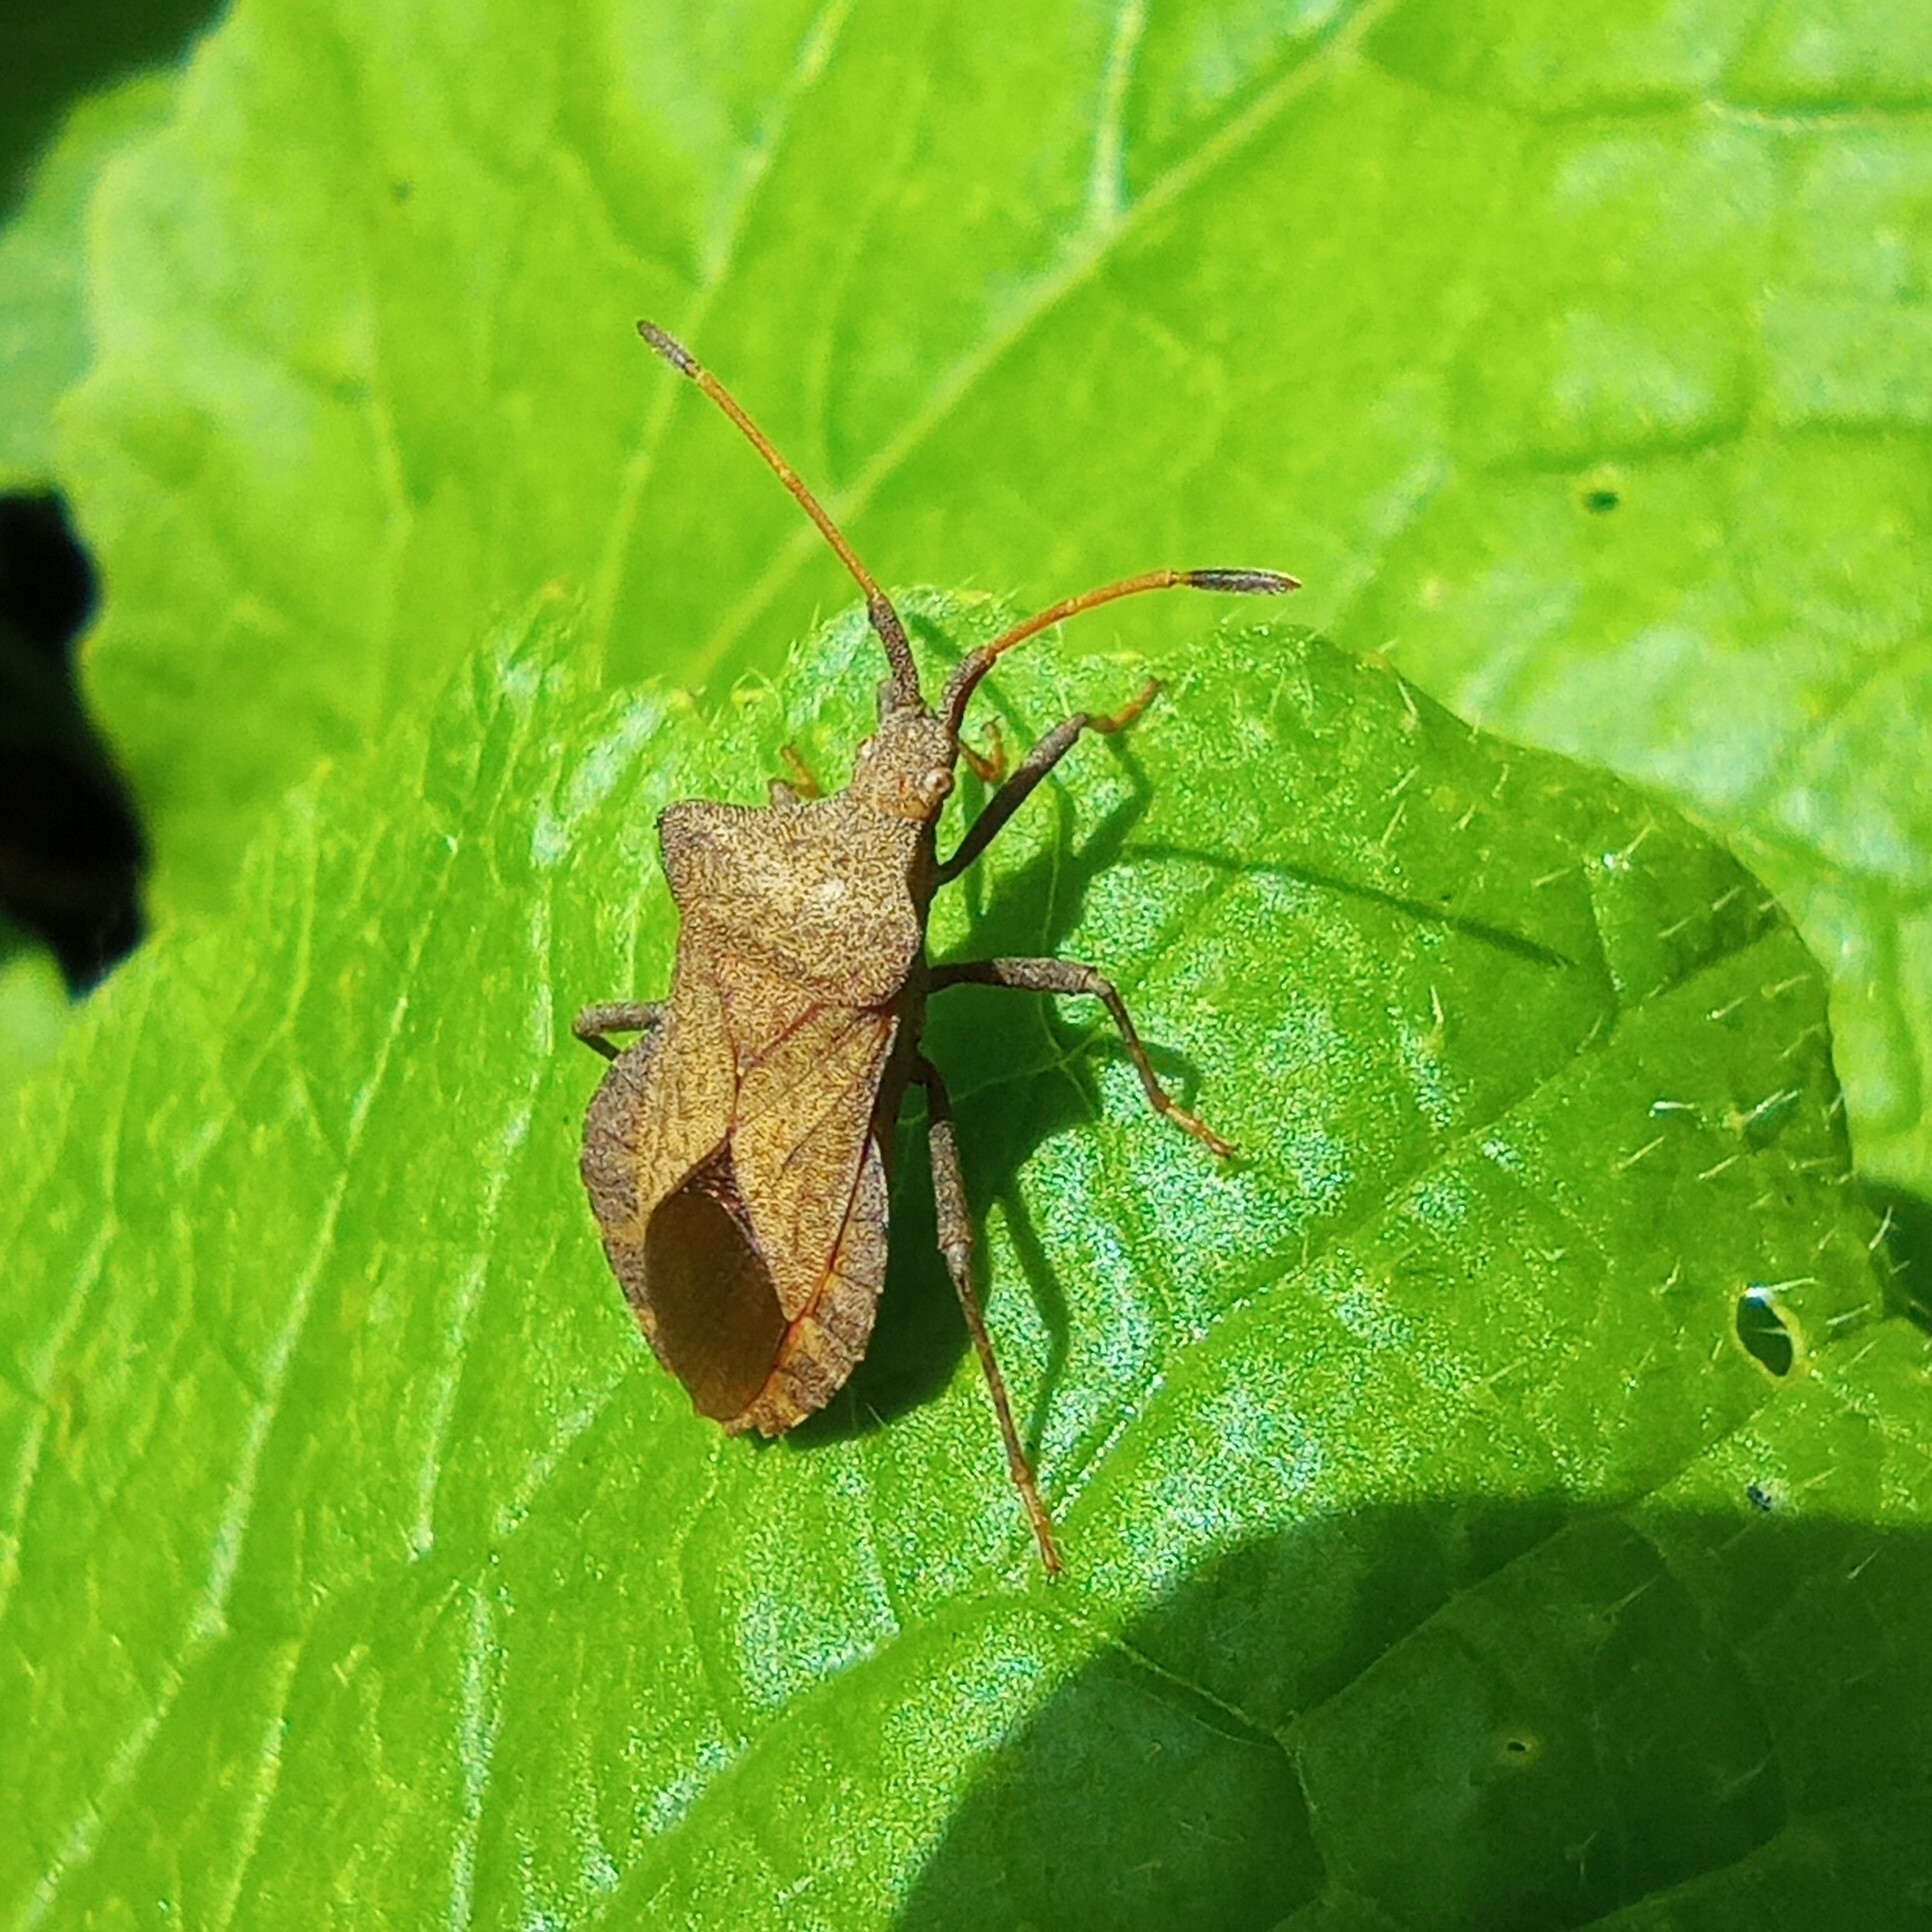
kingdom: Animalia
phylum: Arthropoda
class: Insecta
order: Hemiptera
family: Coreidae
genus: Coreus
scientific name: Coreus marginatus
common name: Dock bug
